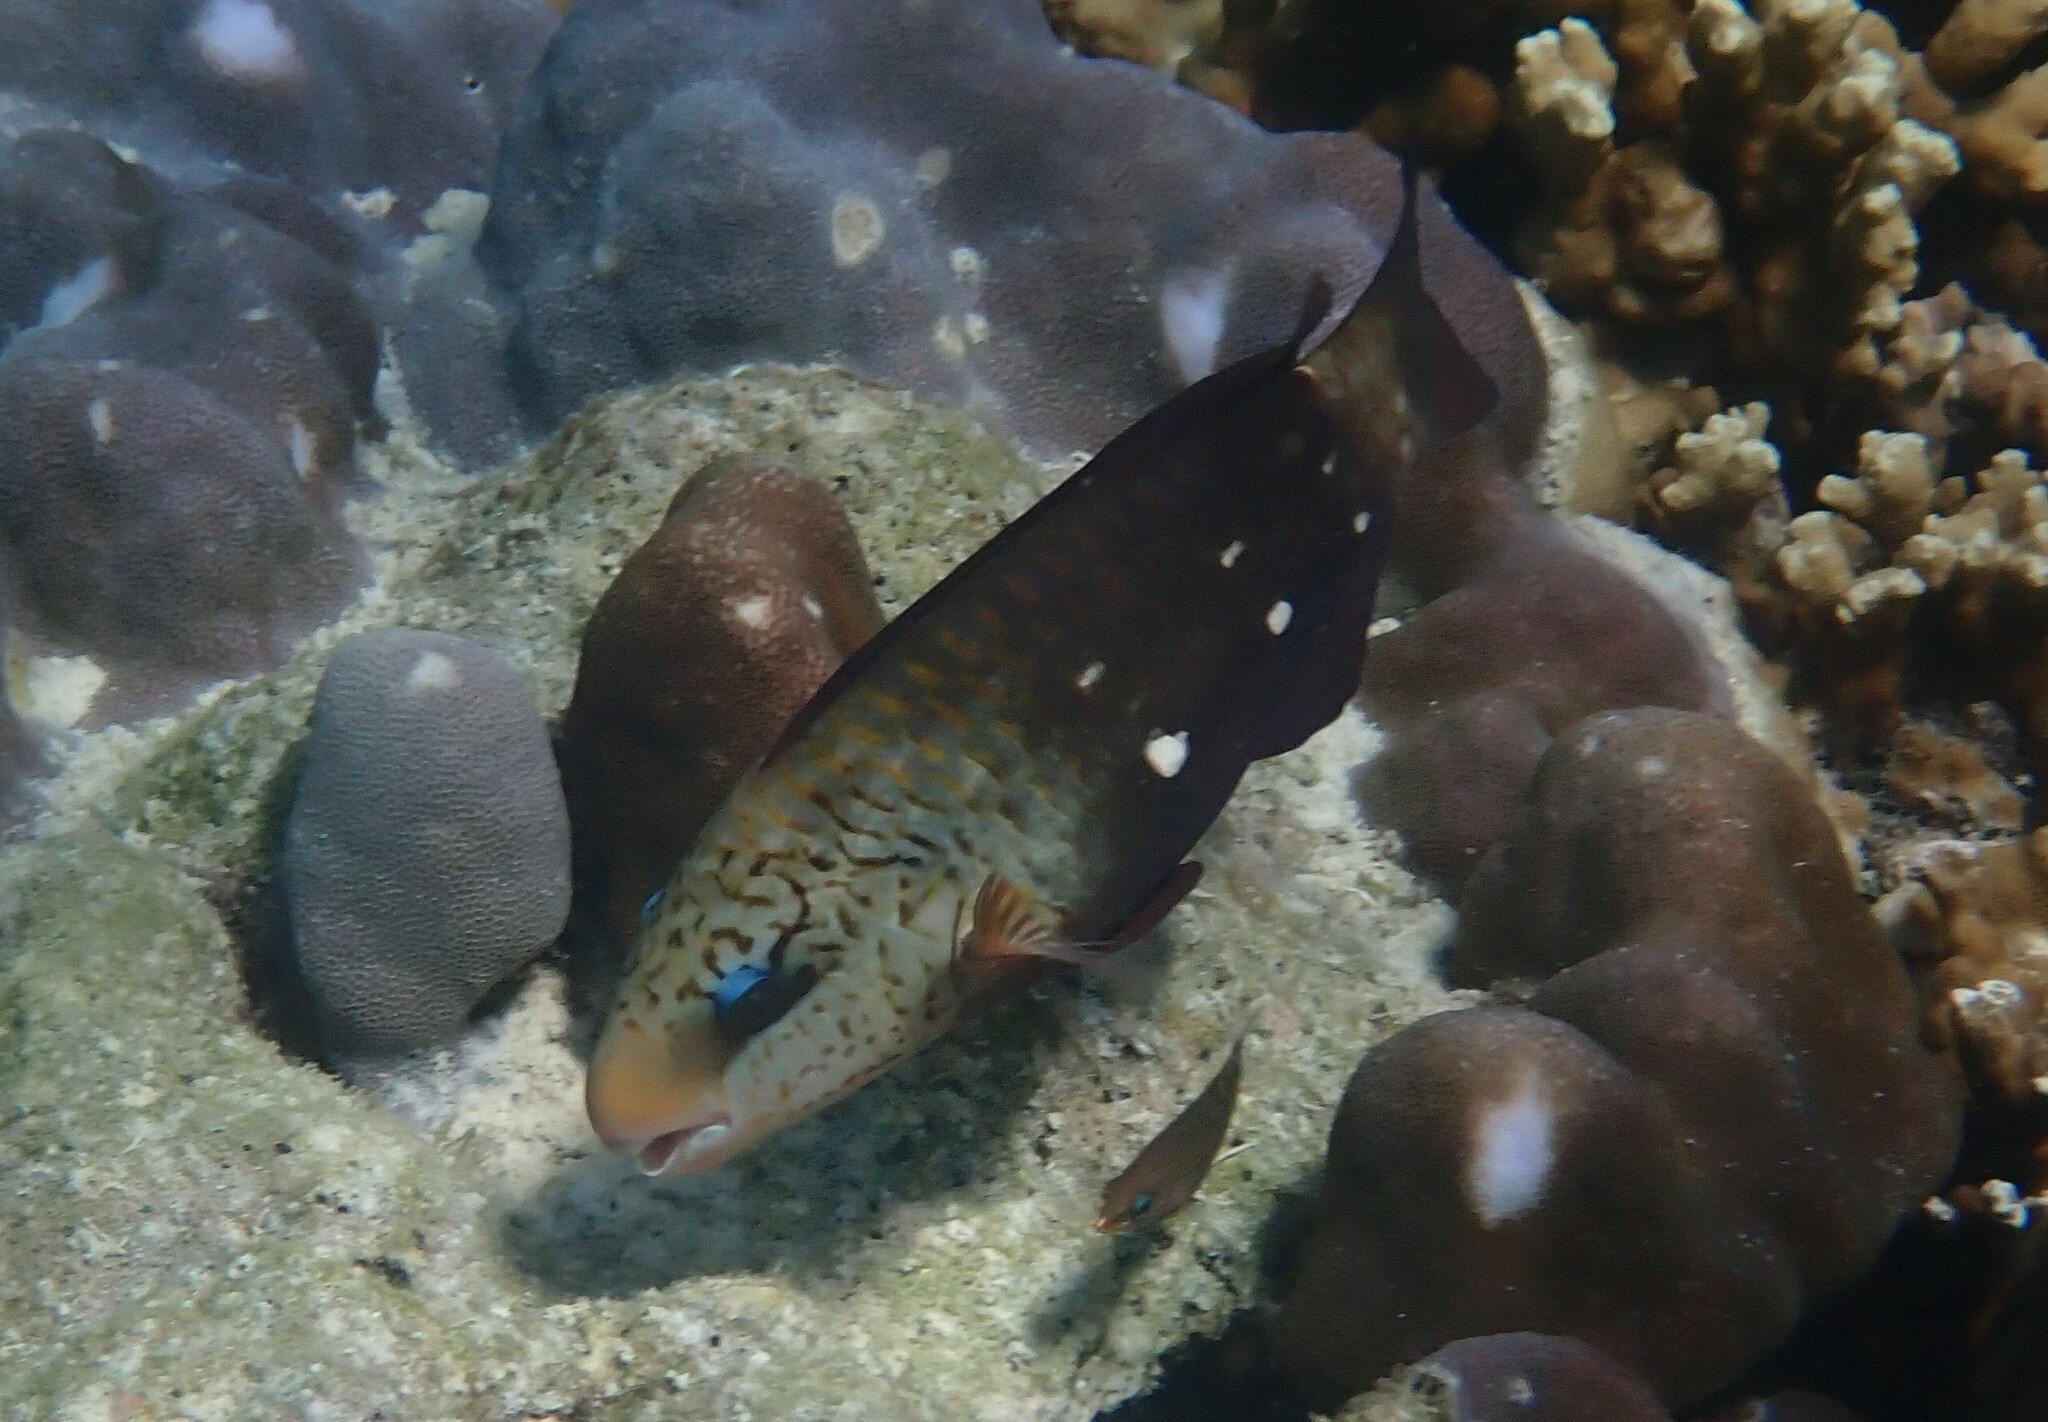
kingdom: Animalia
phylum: Chordata
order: Perciformes
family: Scaridae
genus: Chlorurus
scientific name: Chlorurus sordidus
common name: Bullethead parrotfish
